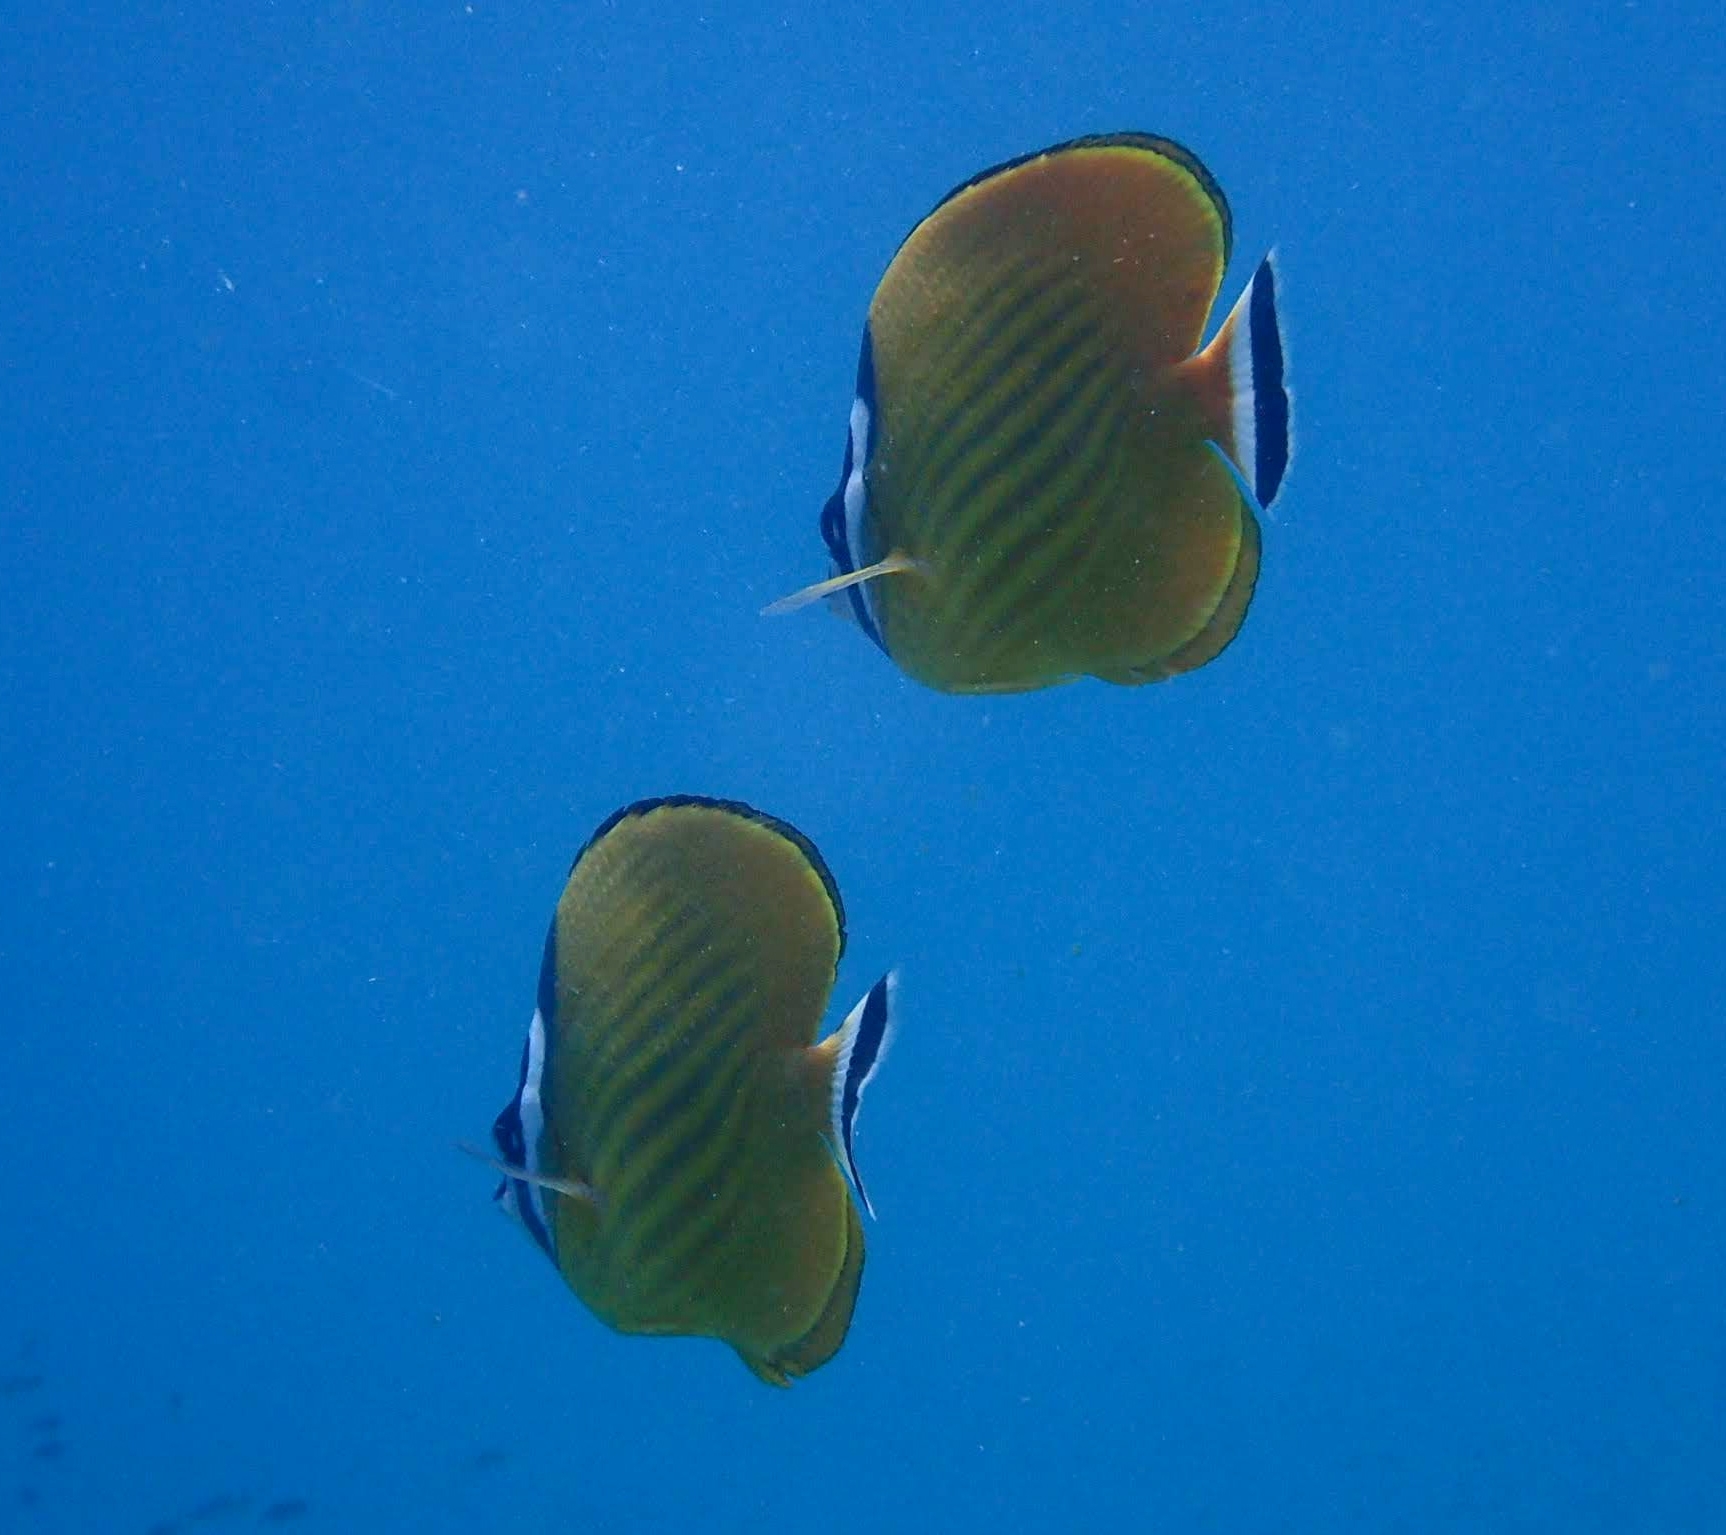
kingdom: Animalia
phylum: Chordata
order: Perciformes
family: Chaetodontidae
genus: Chaetodon
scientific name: Chaetodon wiebeli
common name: Butterflyfish
